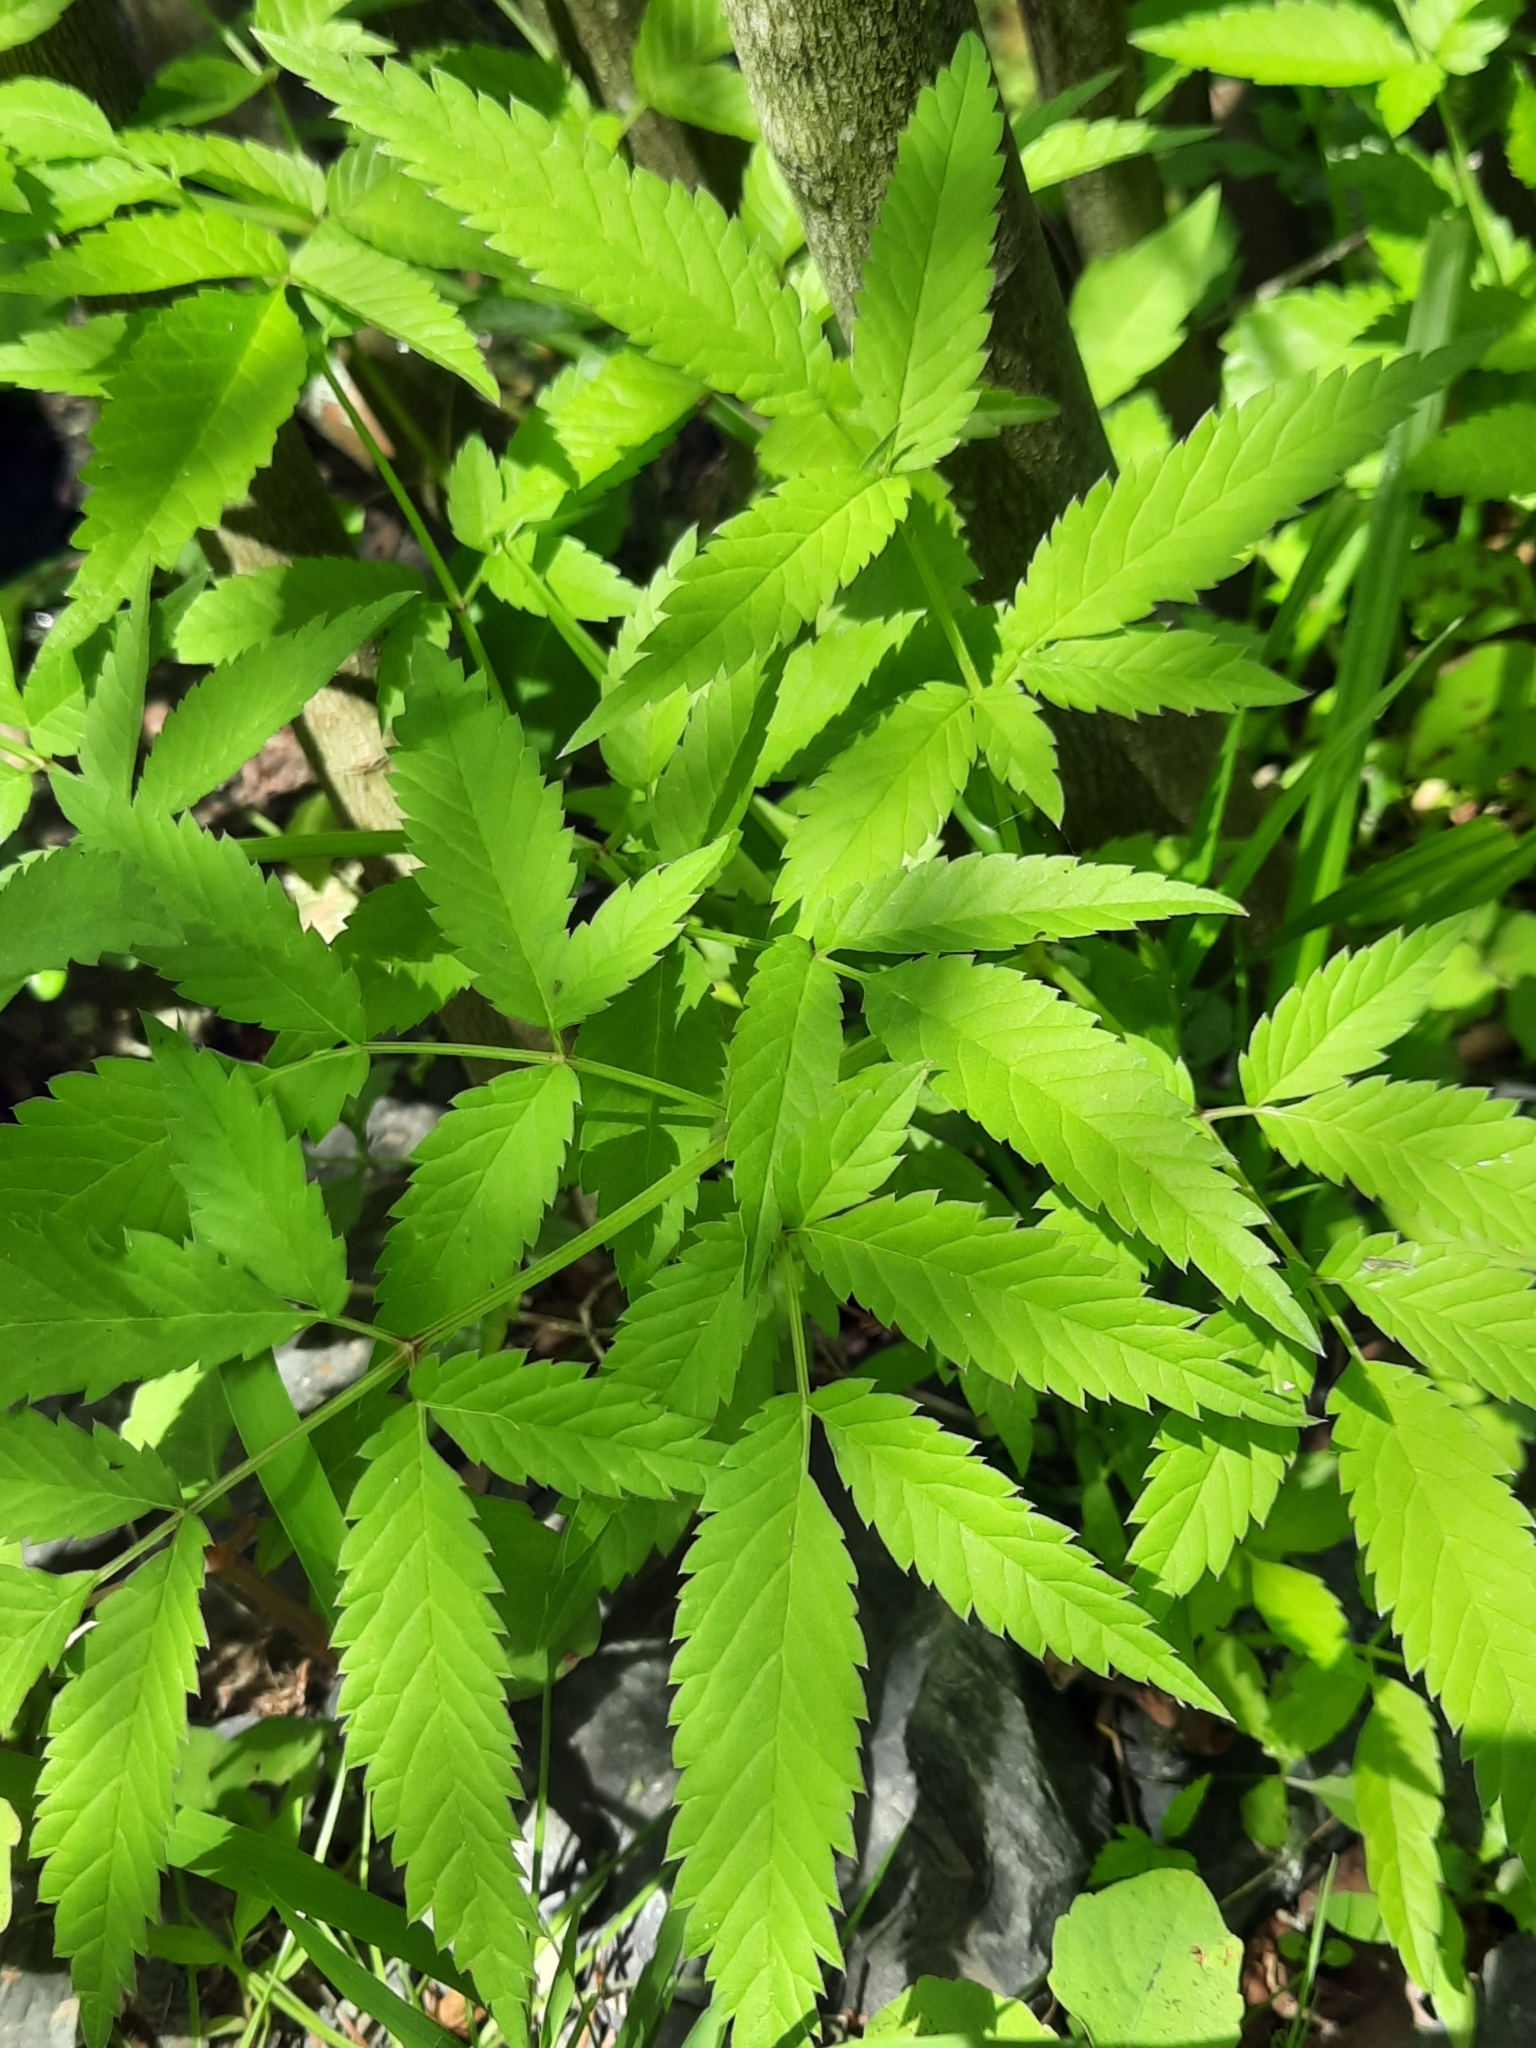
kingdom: Plantae
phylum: Tracheophyta
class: Magnoliopsida
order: Apiales
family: Apiaceae
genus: Cicuta
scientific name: Cicuta maculata
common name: Spotted cowbane
